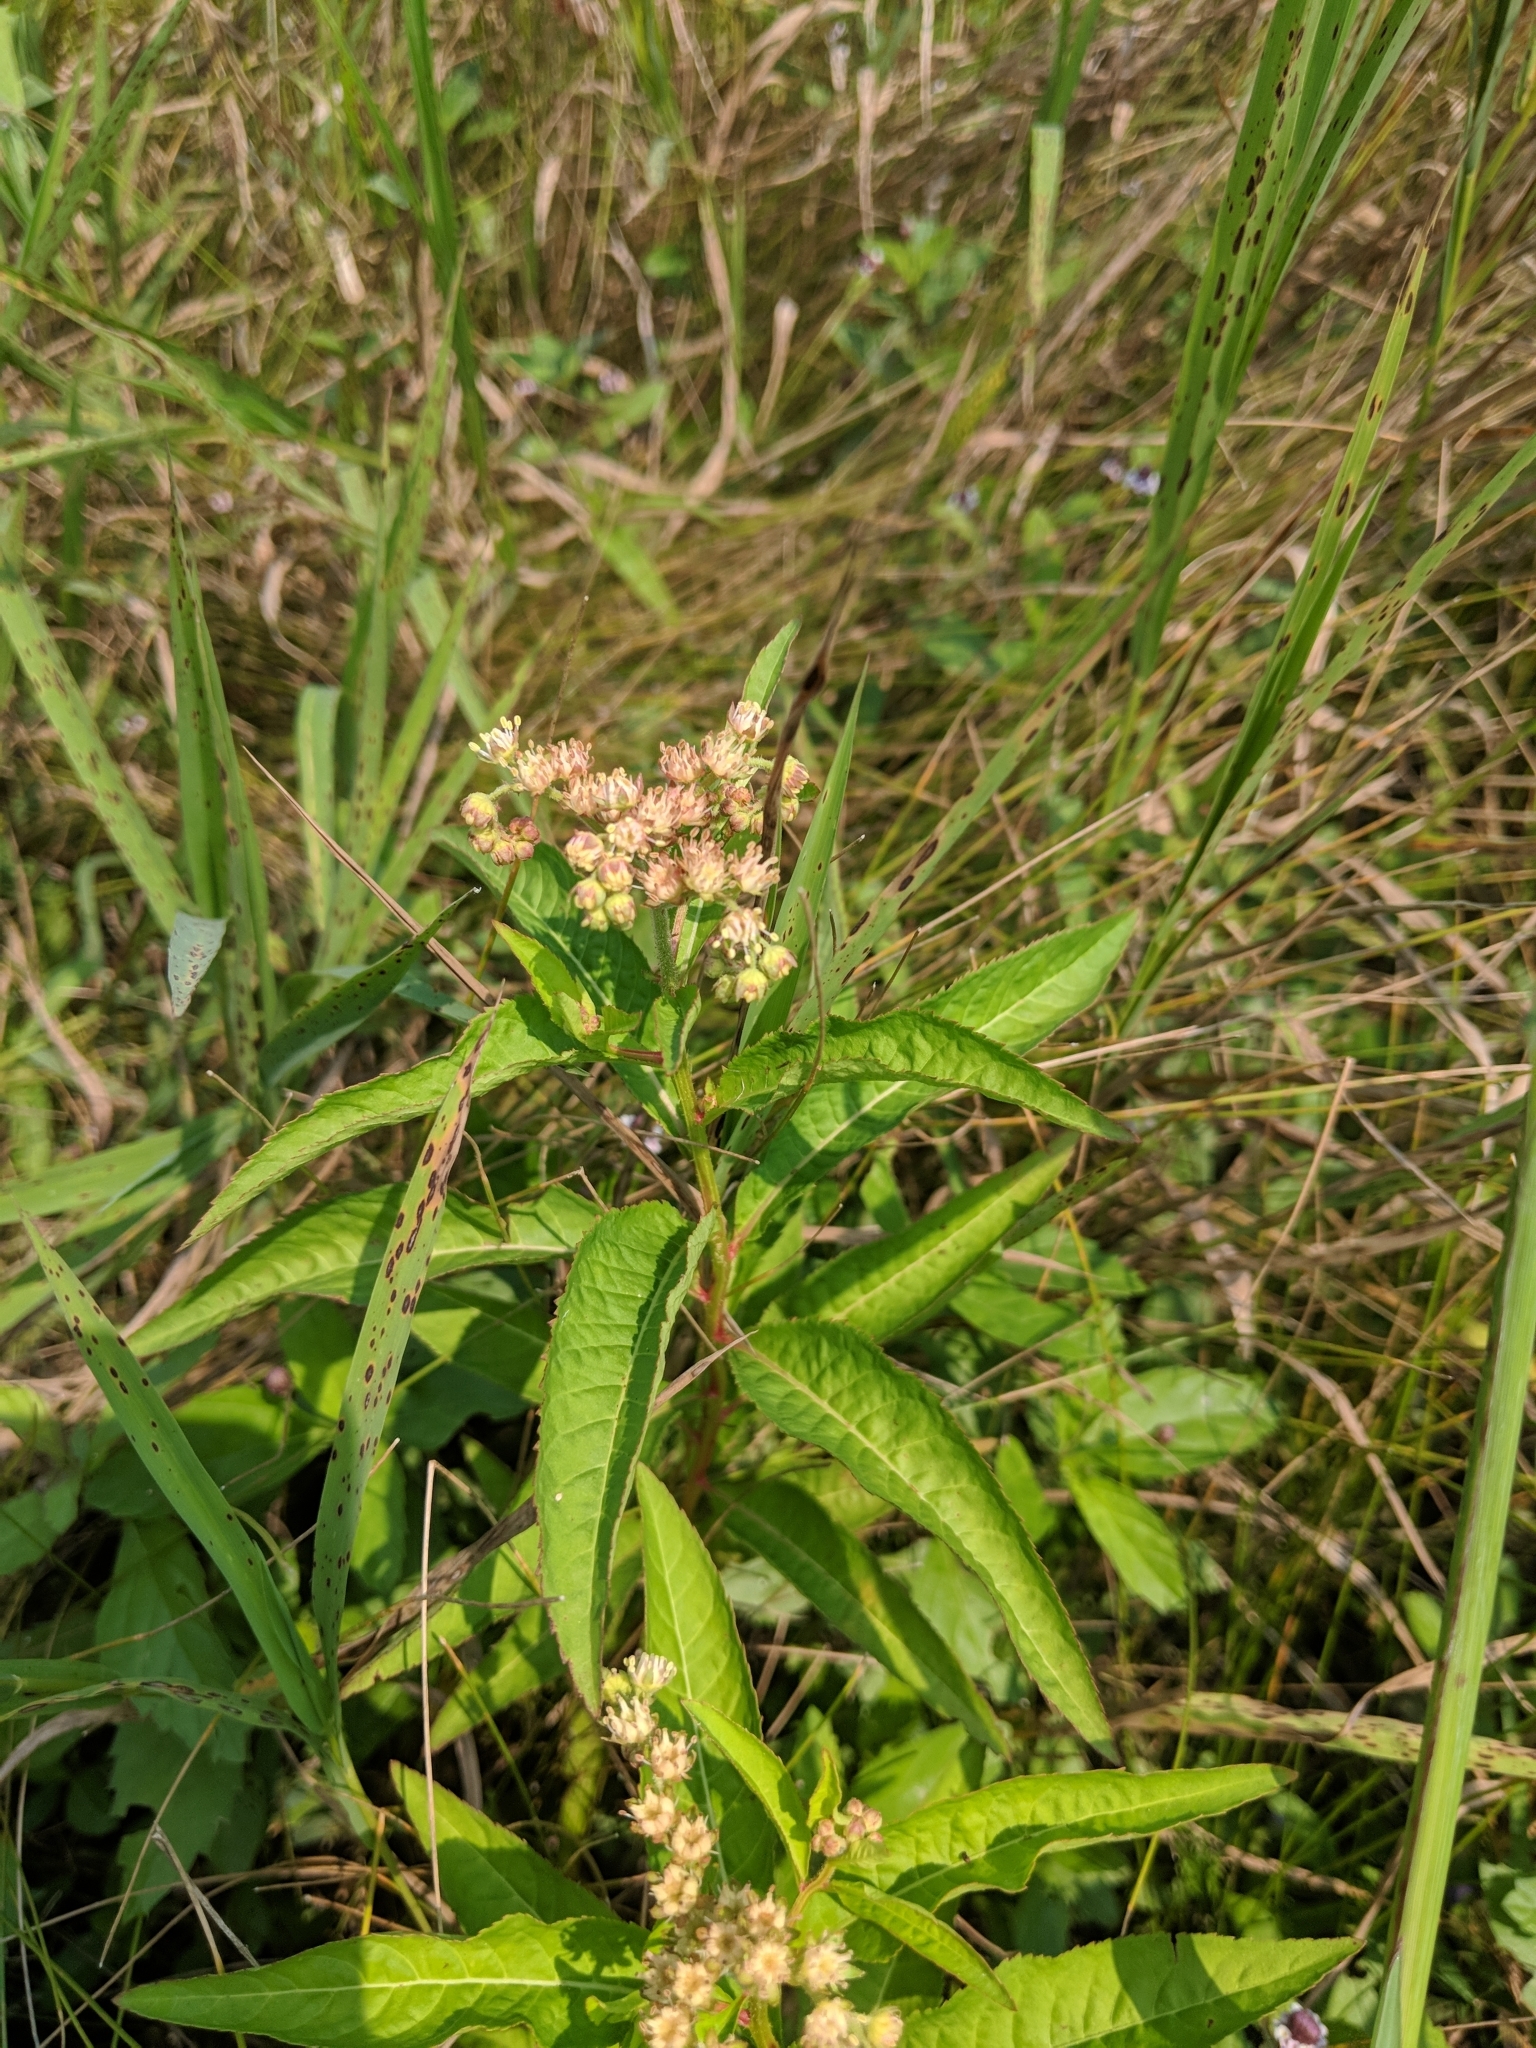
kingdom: Plantae
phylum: Tracheophyta
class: Magnoliopsida
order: Saxifragales
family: Penthoraceae
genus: Penthorum
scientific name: Penthorum sedoides
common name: Ditch stonecrop
